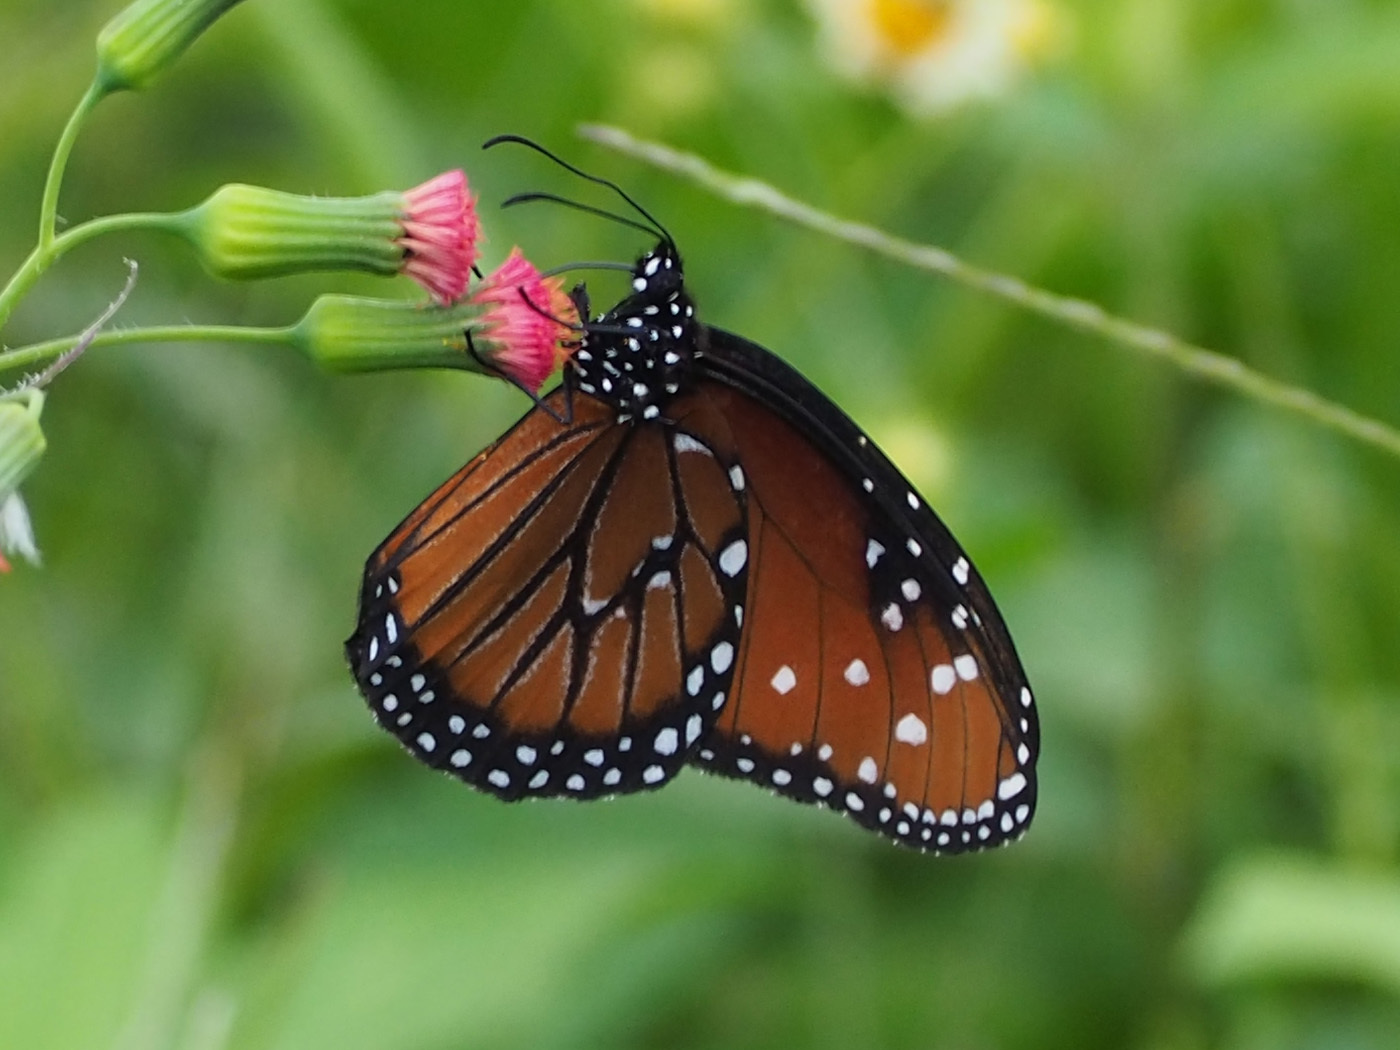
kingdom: Animalia
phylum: Arthropoda
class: Insecta
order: Lepidoptera
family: Nymphalidae
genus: Danaus
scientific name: Danaus gilippus
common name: Queen
